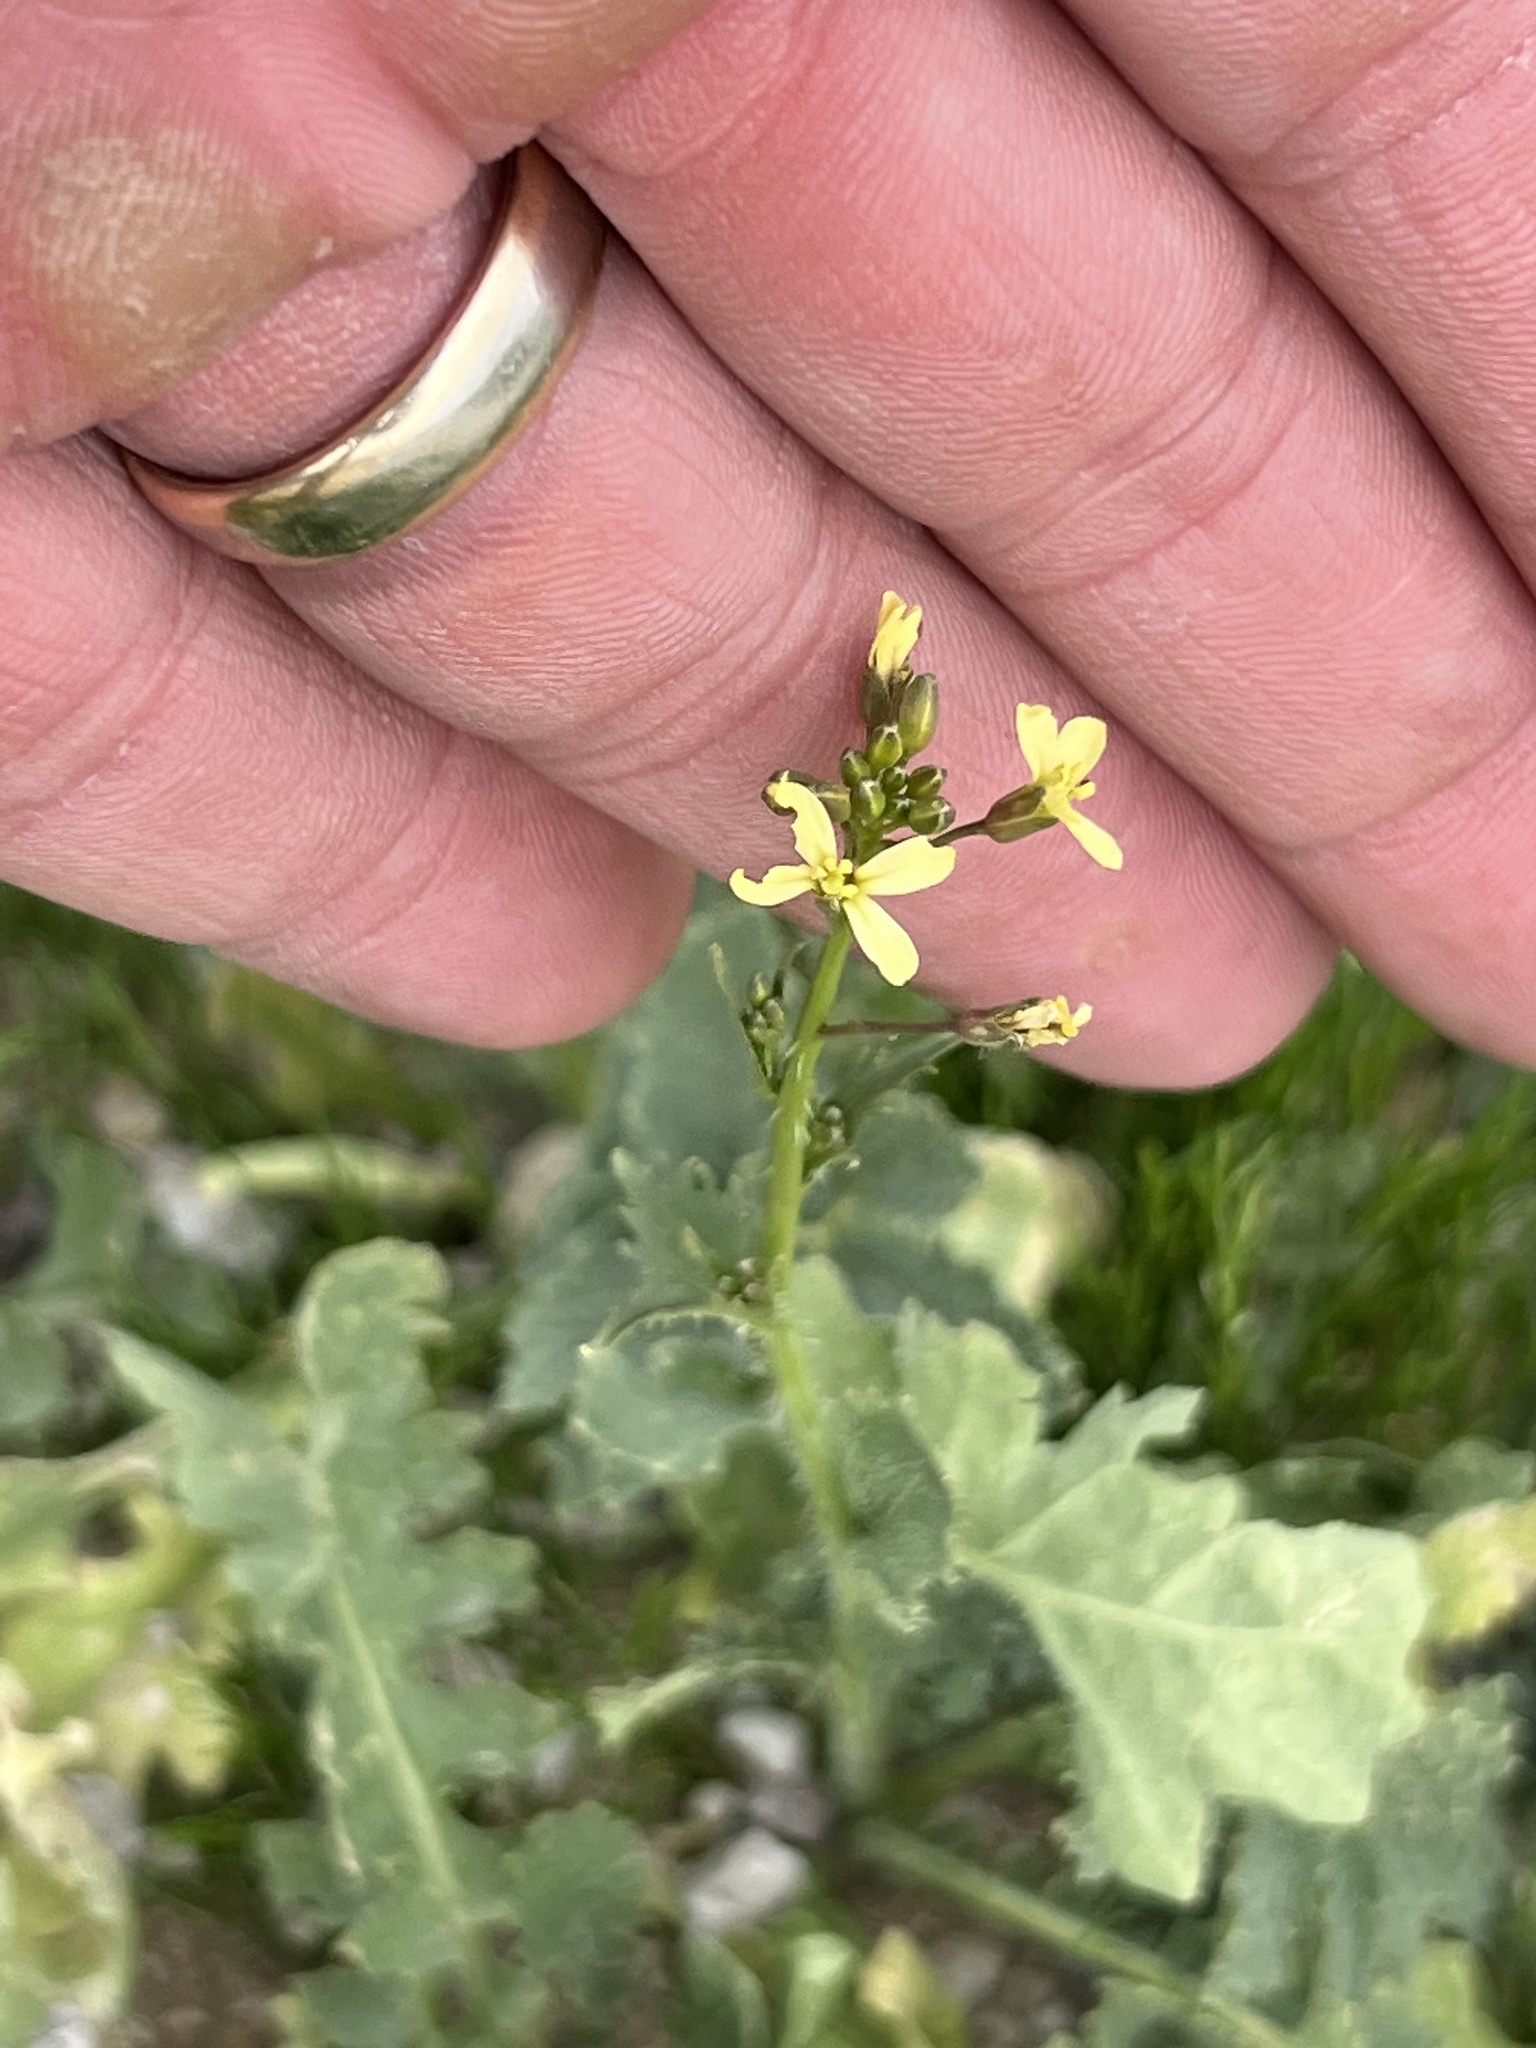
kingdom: Plantae
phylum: Tracheophyta
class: Magnoliopsida
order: Brassicales
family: Brassicaceae
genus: Brassica
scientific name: Brassica tournefortii
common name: Pale cabbage
